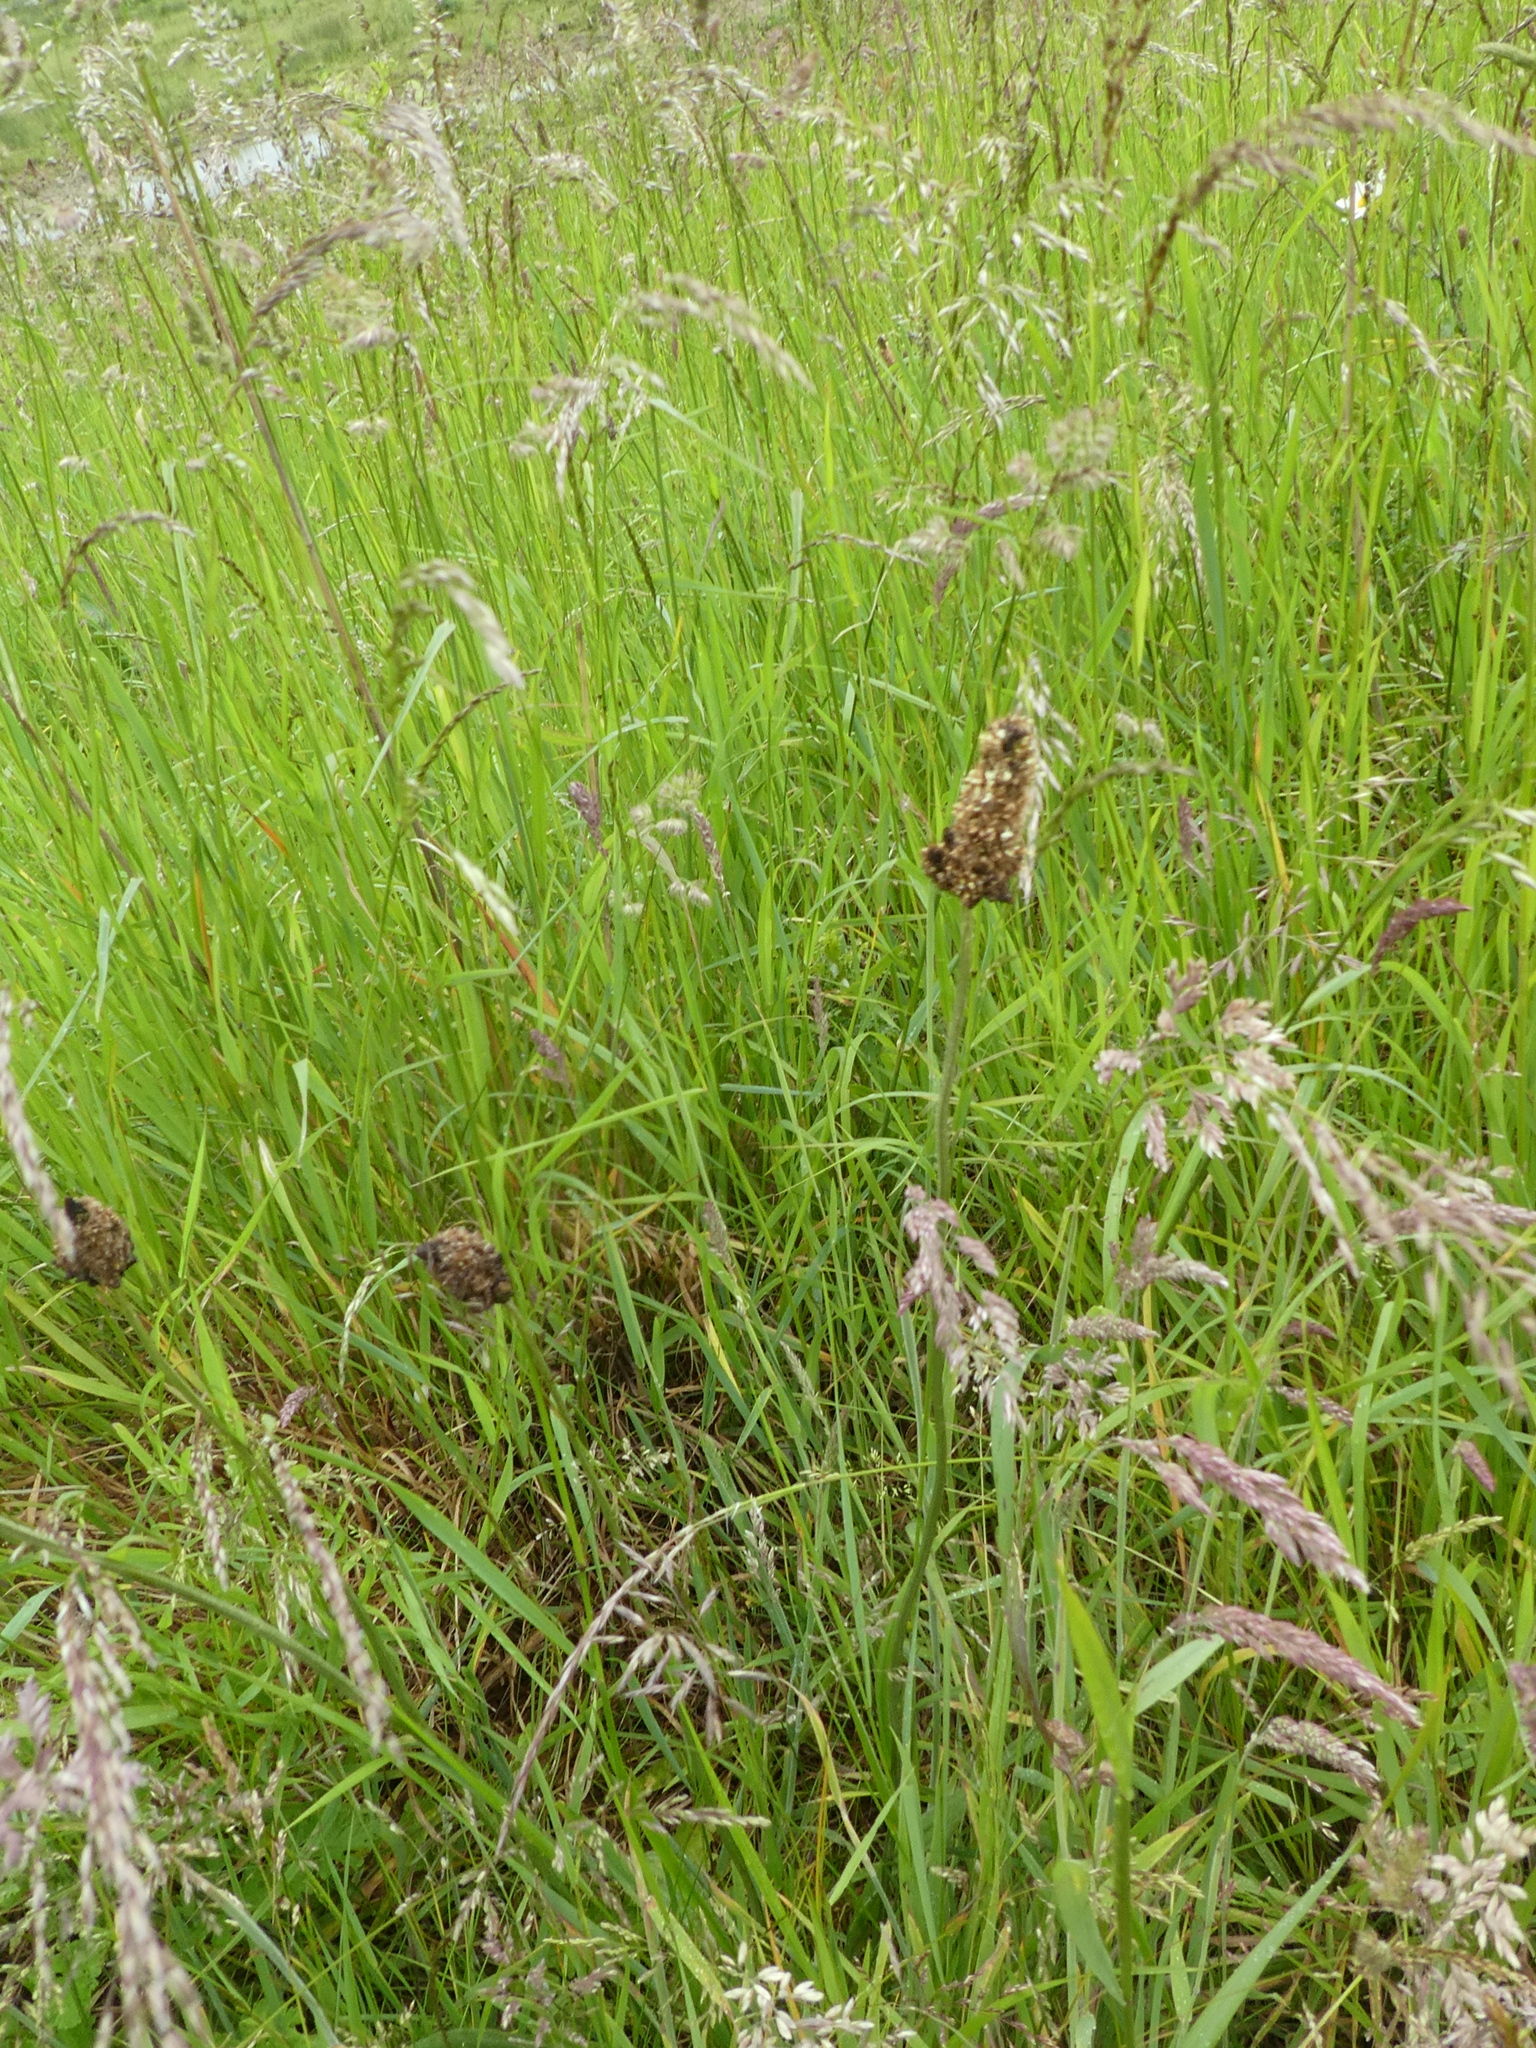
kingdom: Plantae
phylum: Tracheophyta
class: Magnoliopsida
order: Lamiales
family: Plantaginaceae
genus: Plantago
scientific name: Plantago lanceolata
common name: Ribwort plantain
